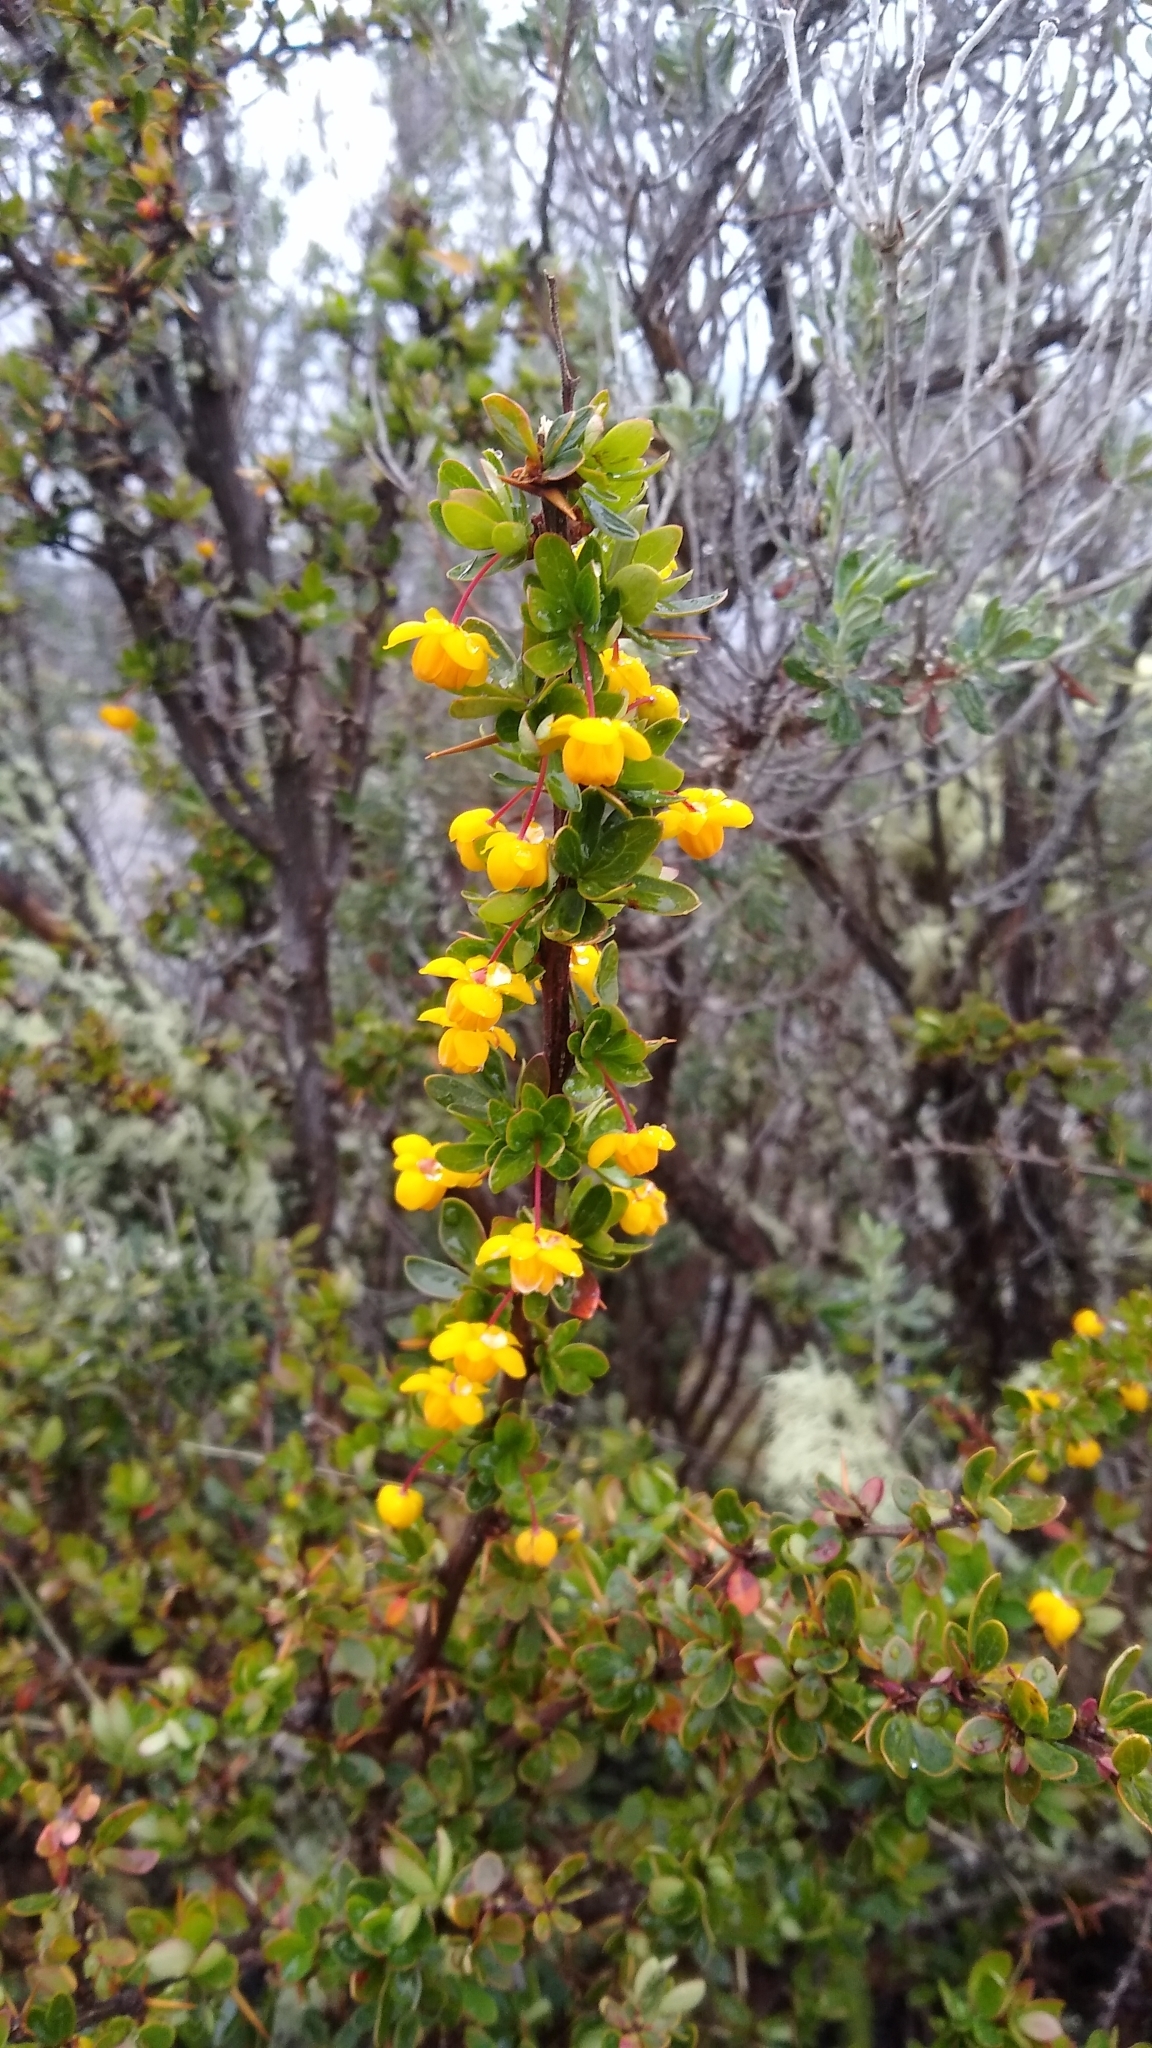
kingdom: Plantae
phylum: Tracheophyta
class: Magnoliopsida
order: Ranunculales
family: Berberidaceae
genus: Berberis
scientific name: Berberis microphylla
